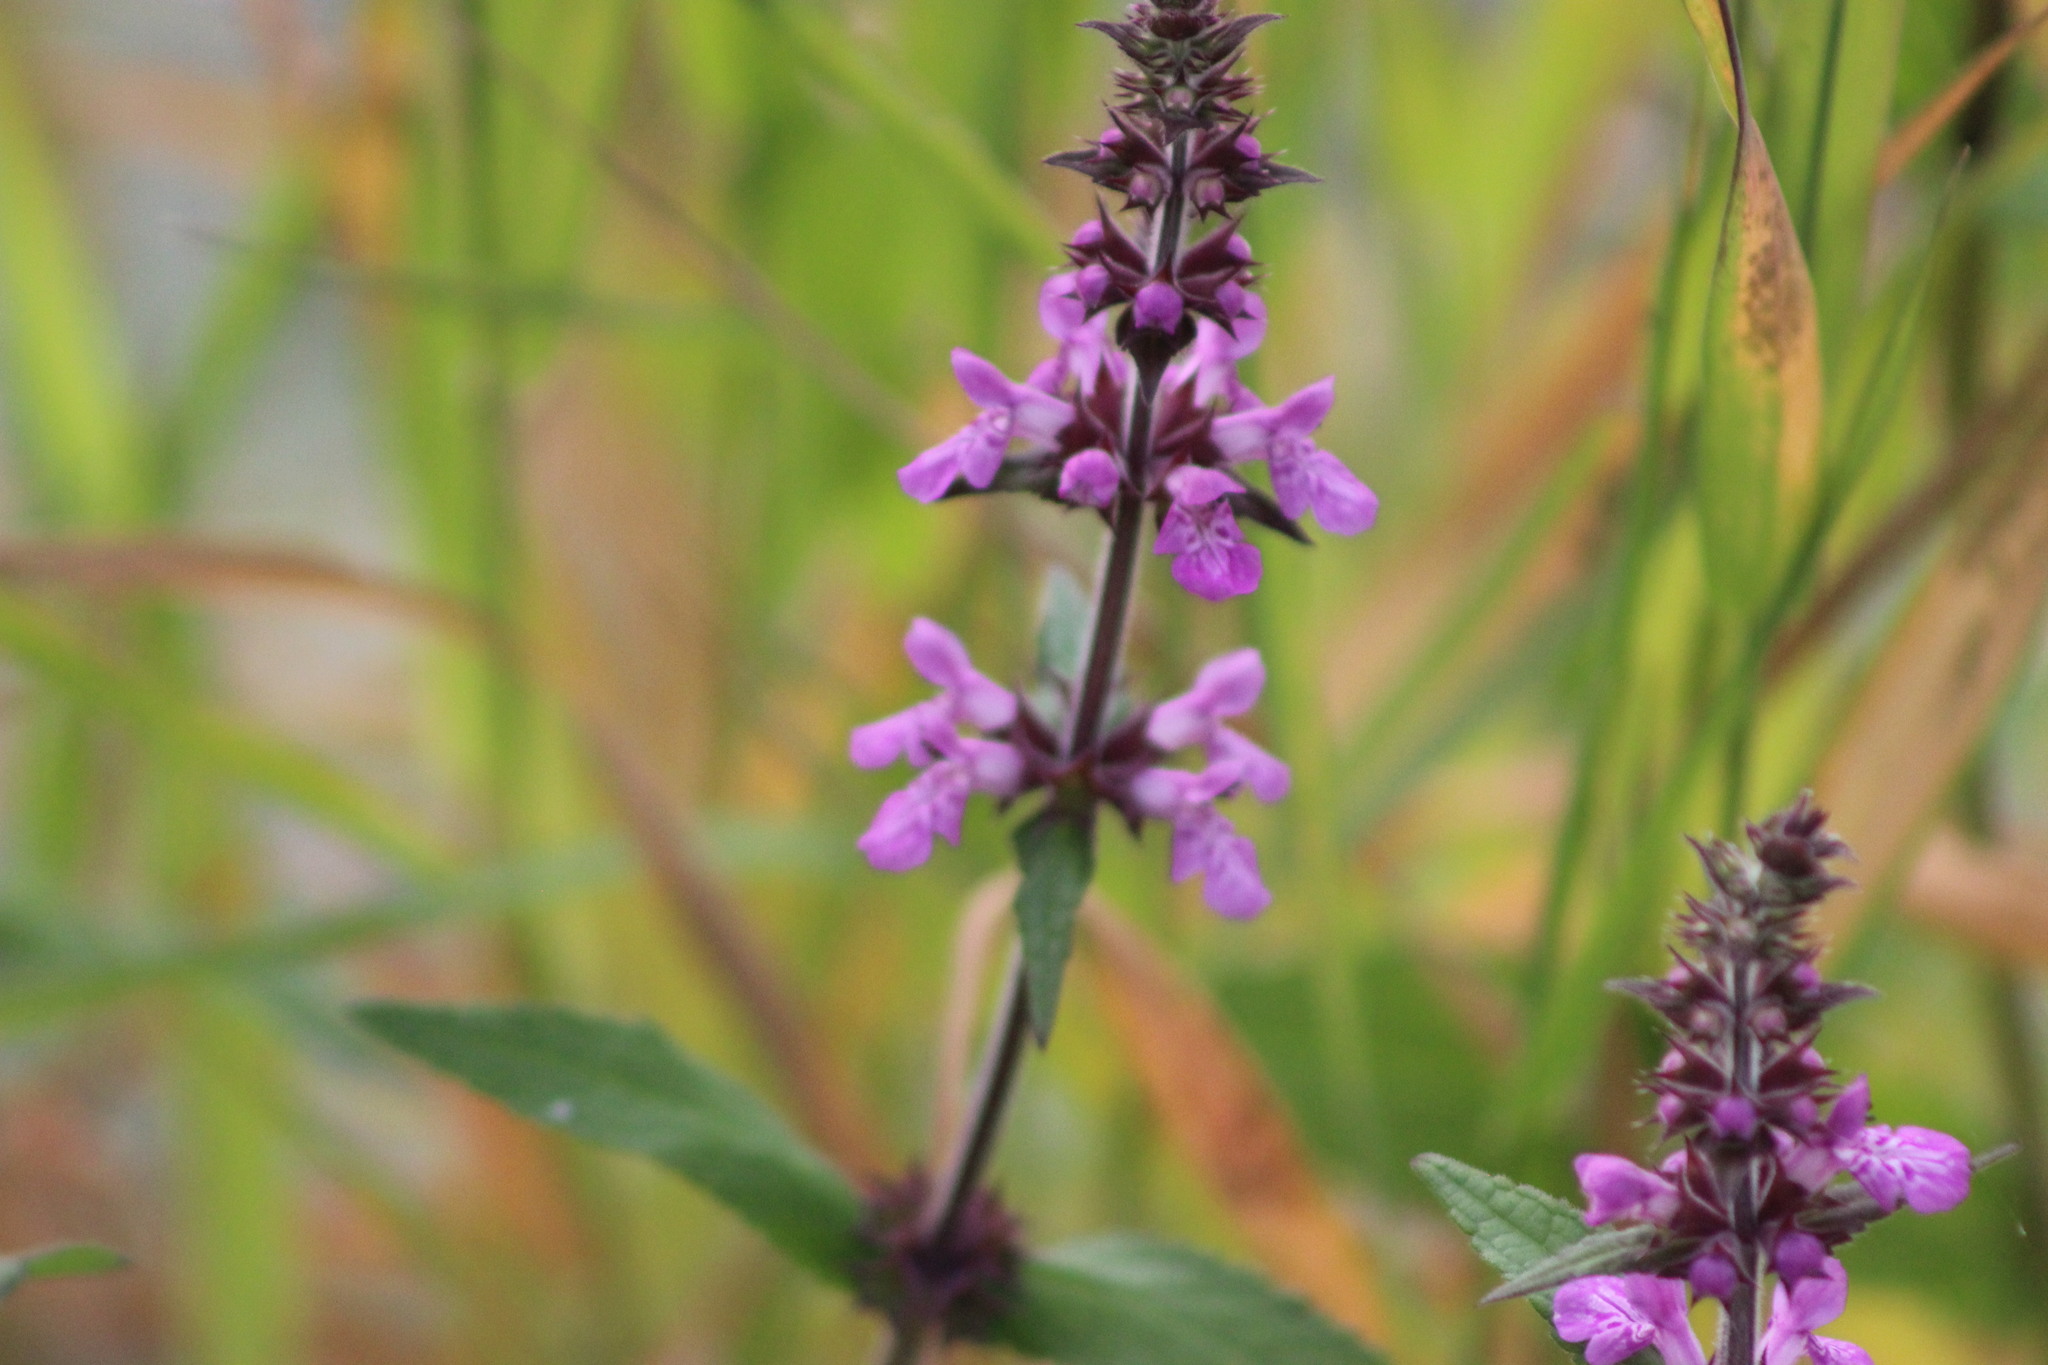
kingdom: Plantae
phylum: Tracheophyta
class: Magnoliopsida
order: Lamiales
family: Lamiaceae
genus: Stachys
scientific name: Stachys palustris
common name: Marsh woundwort
